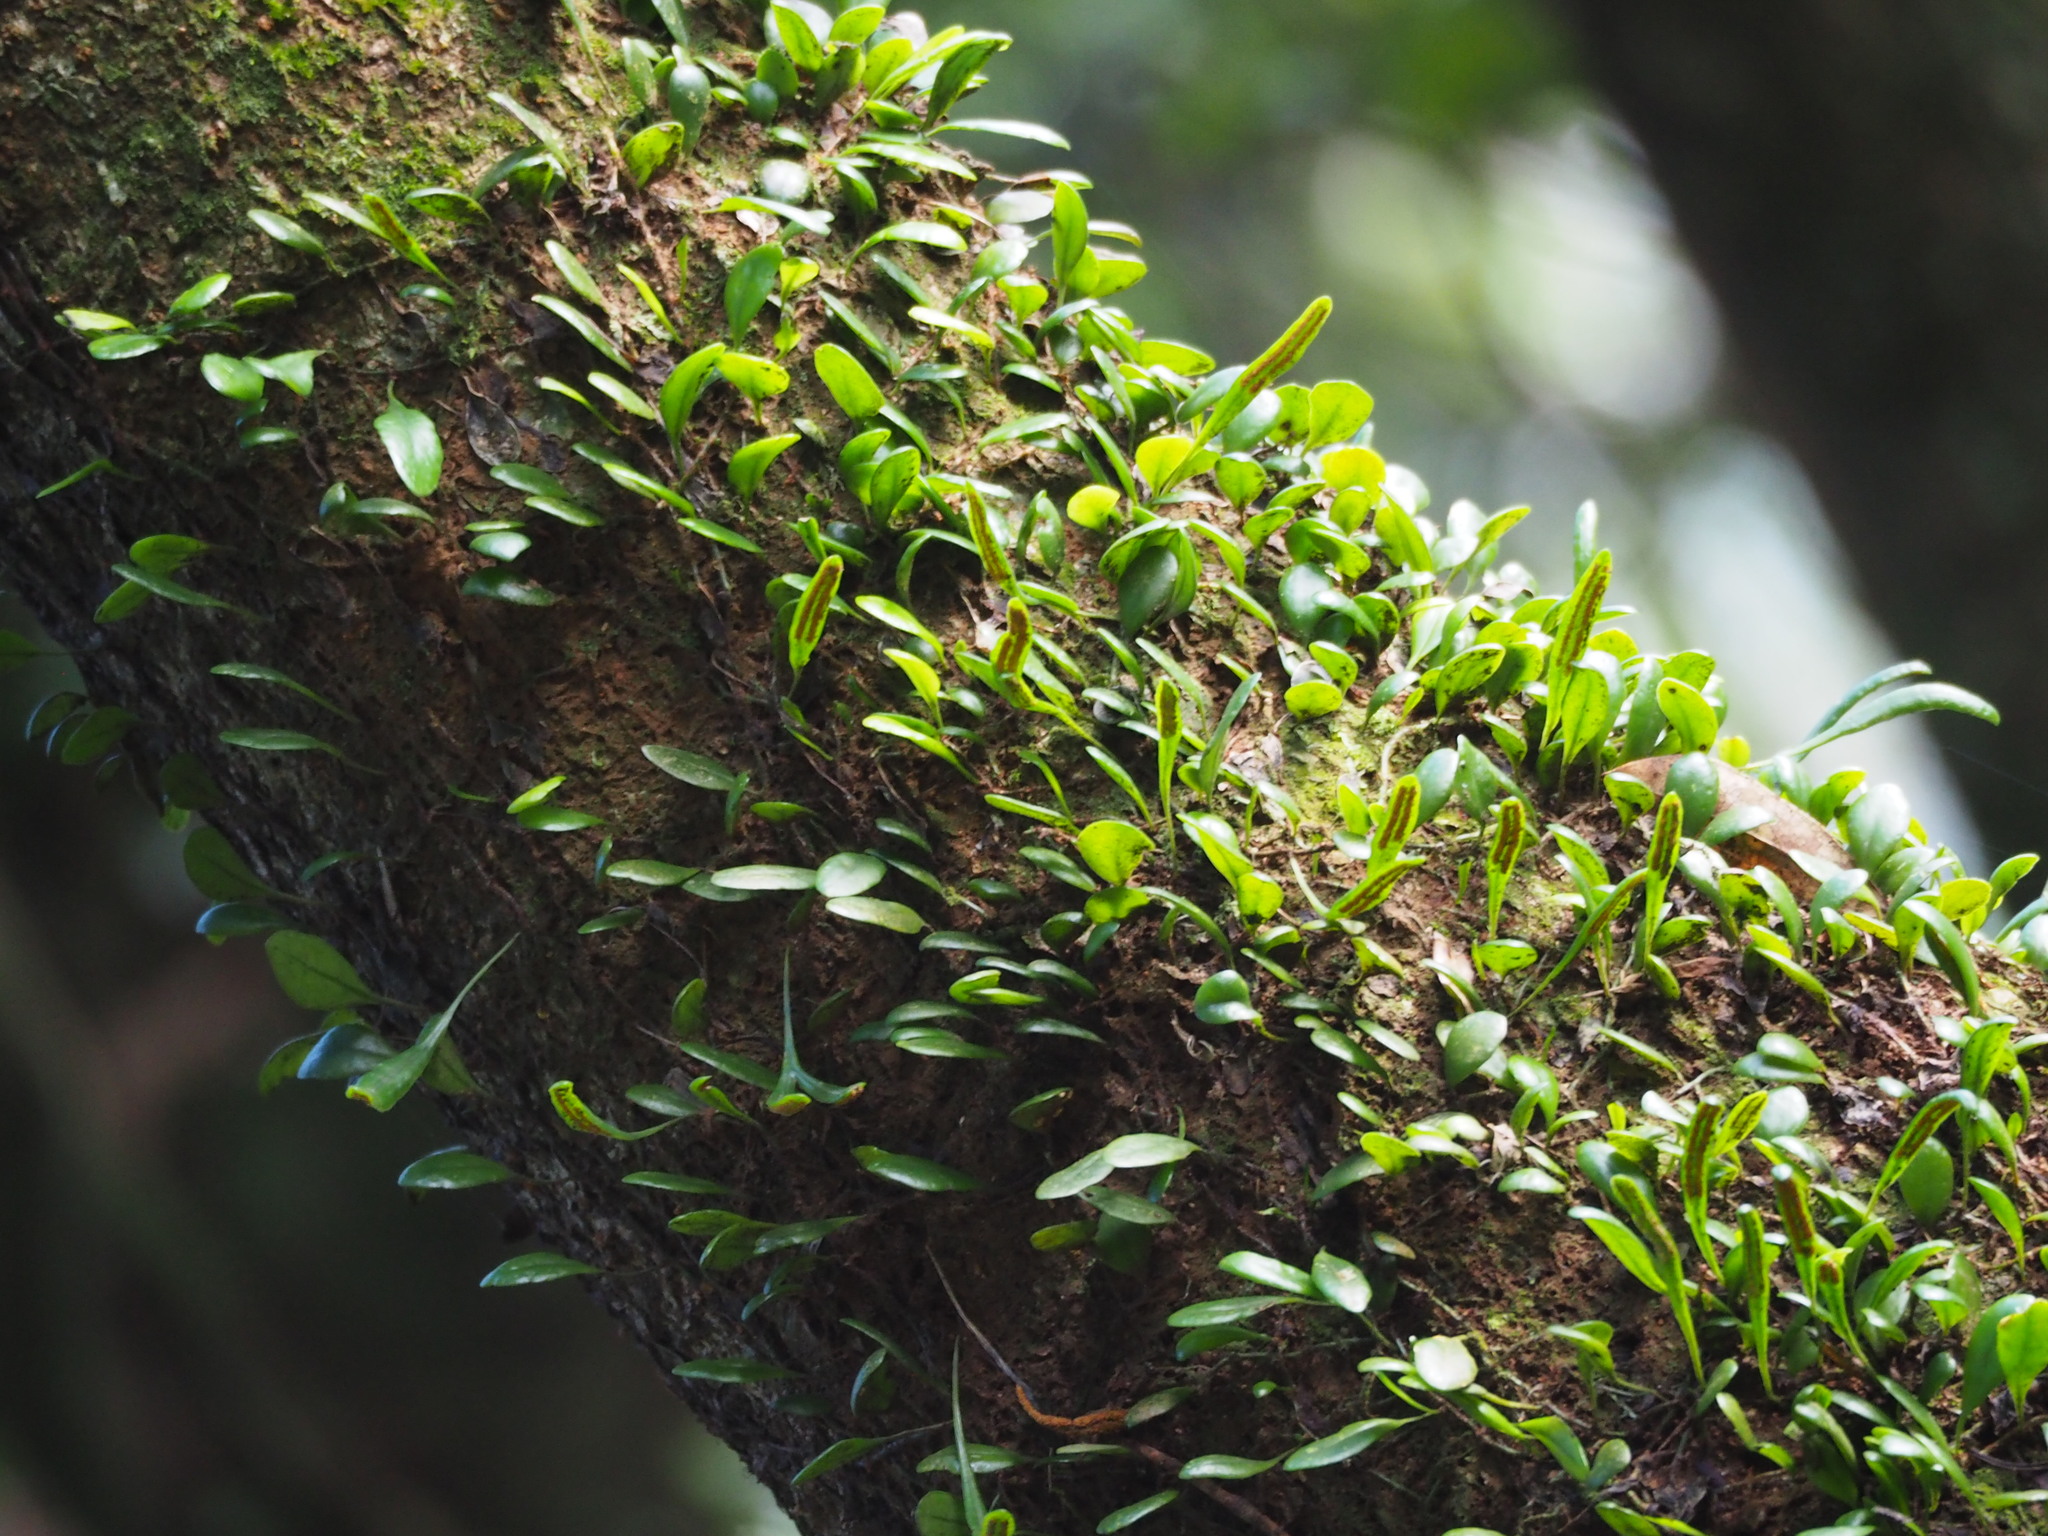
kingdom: Plantae
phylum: Tracheophyta
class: Polypodiopsida
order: Polypodiales
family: Polypodiaceae
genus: Lepisorus
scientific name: Lepisorus microphyllus
